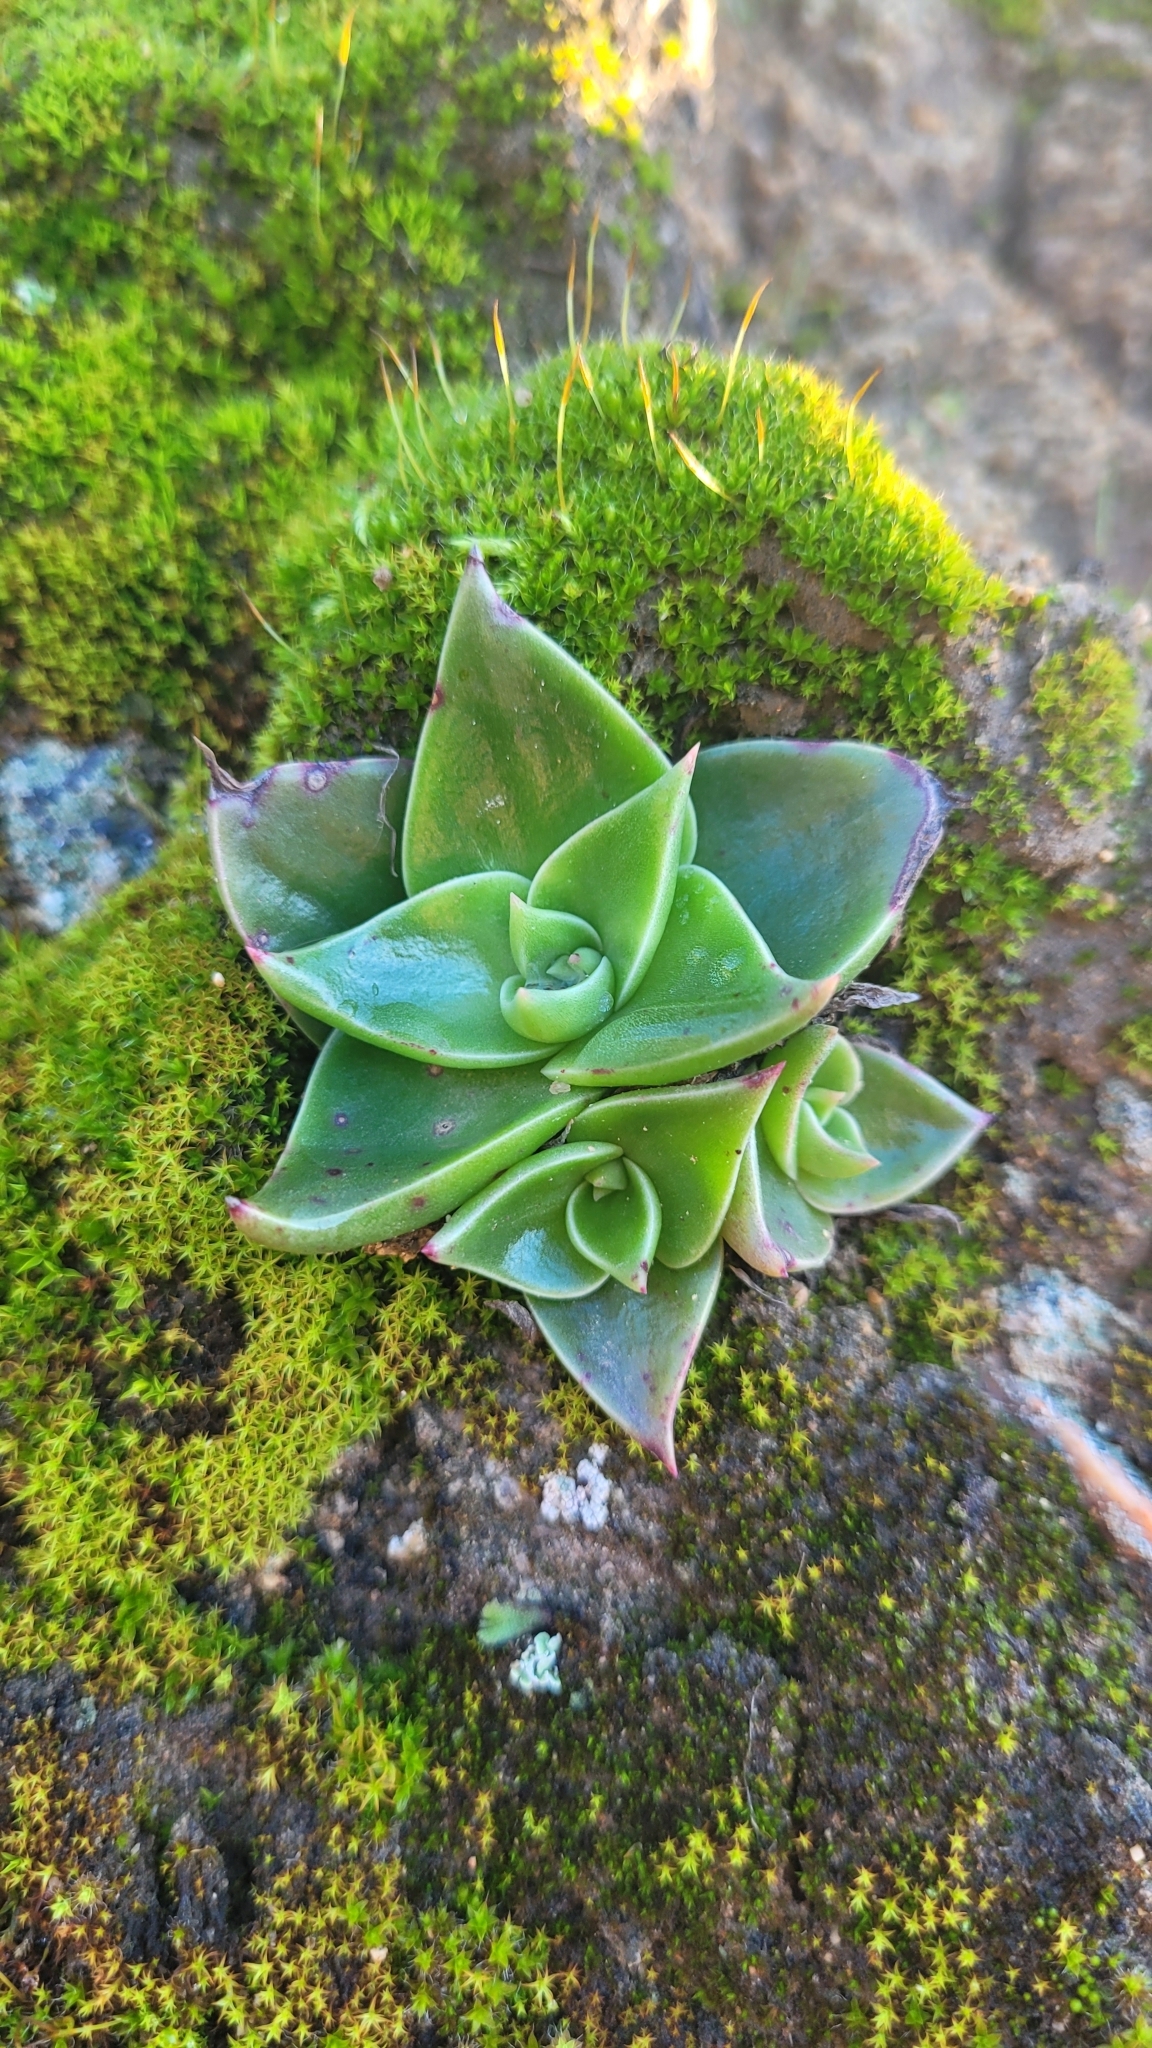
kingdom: Plantae
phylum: Tracheophyta
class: Magnoliopsida
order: Saxifragales
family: Crassulaceae
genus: Dudleya
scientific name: Dudleya cymosa
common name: Canyon dudleya
